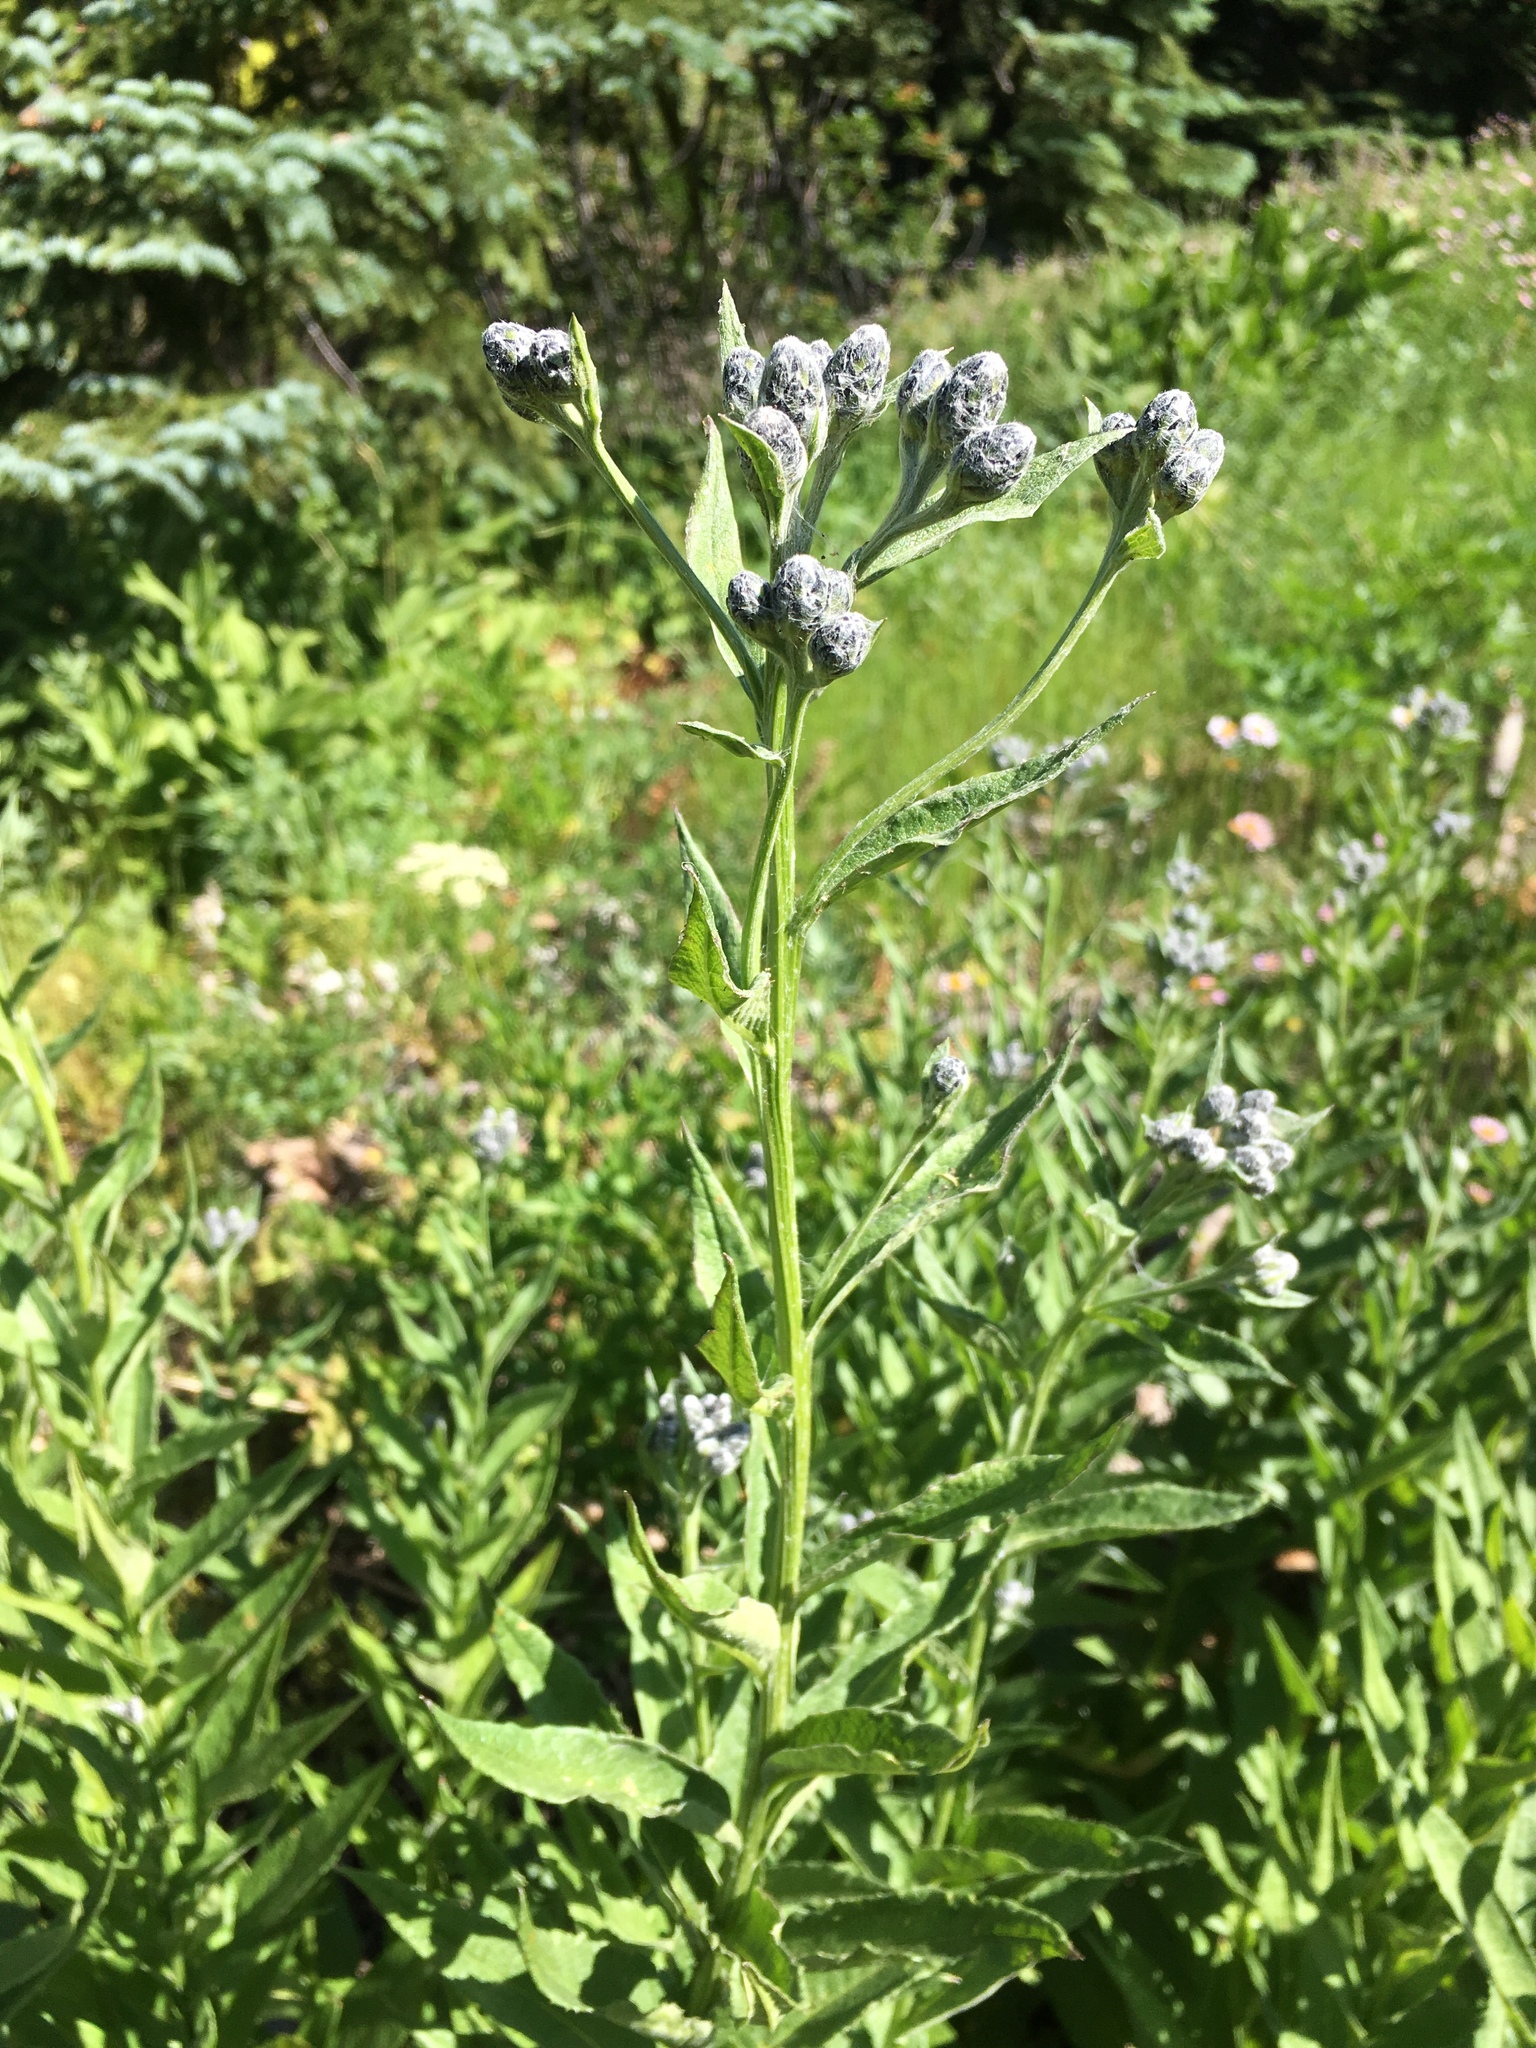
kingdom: Plantae
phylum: Tracheophyta
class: Magnoliopsida
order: Asterales
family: Asteraceae
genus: Saussurea
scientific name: Saussurea americana
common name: American saw-wort
